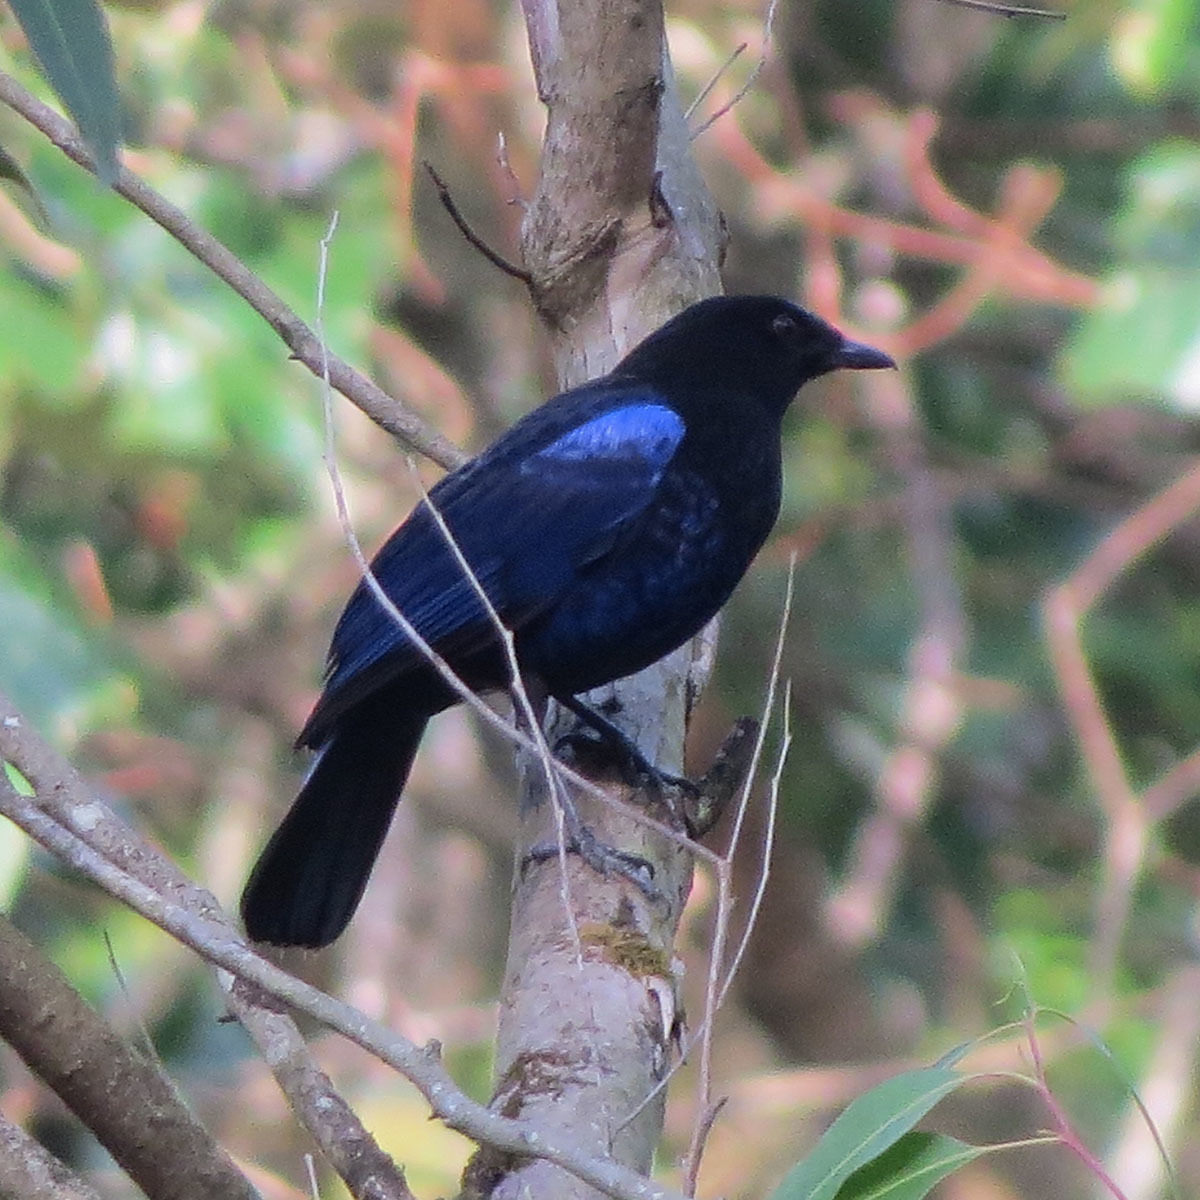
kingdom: Animalia
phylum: Chordata
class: Aves
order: Passeriformes
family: Muscicapidae
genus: Myophonus
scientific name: Myophonus horsfieldii
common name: Malabar whistling-thrush
